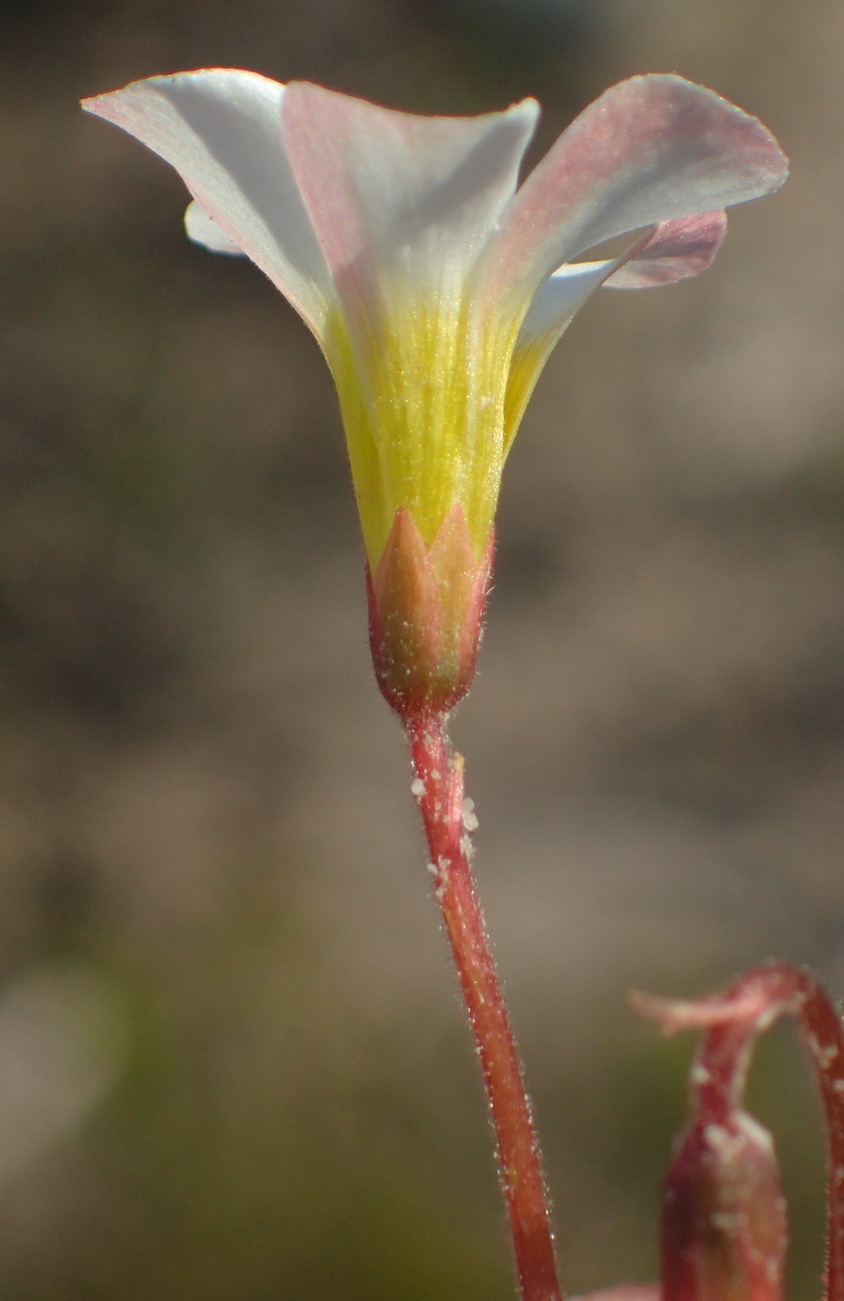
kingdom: Plantae
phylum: Tracheophyta
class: Magnoliopsida
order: Oxalidales
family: Oxalidaceae
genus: Oxalis
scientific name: Oxalis punctata
